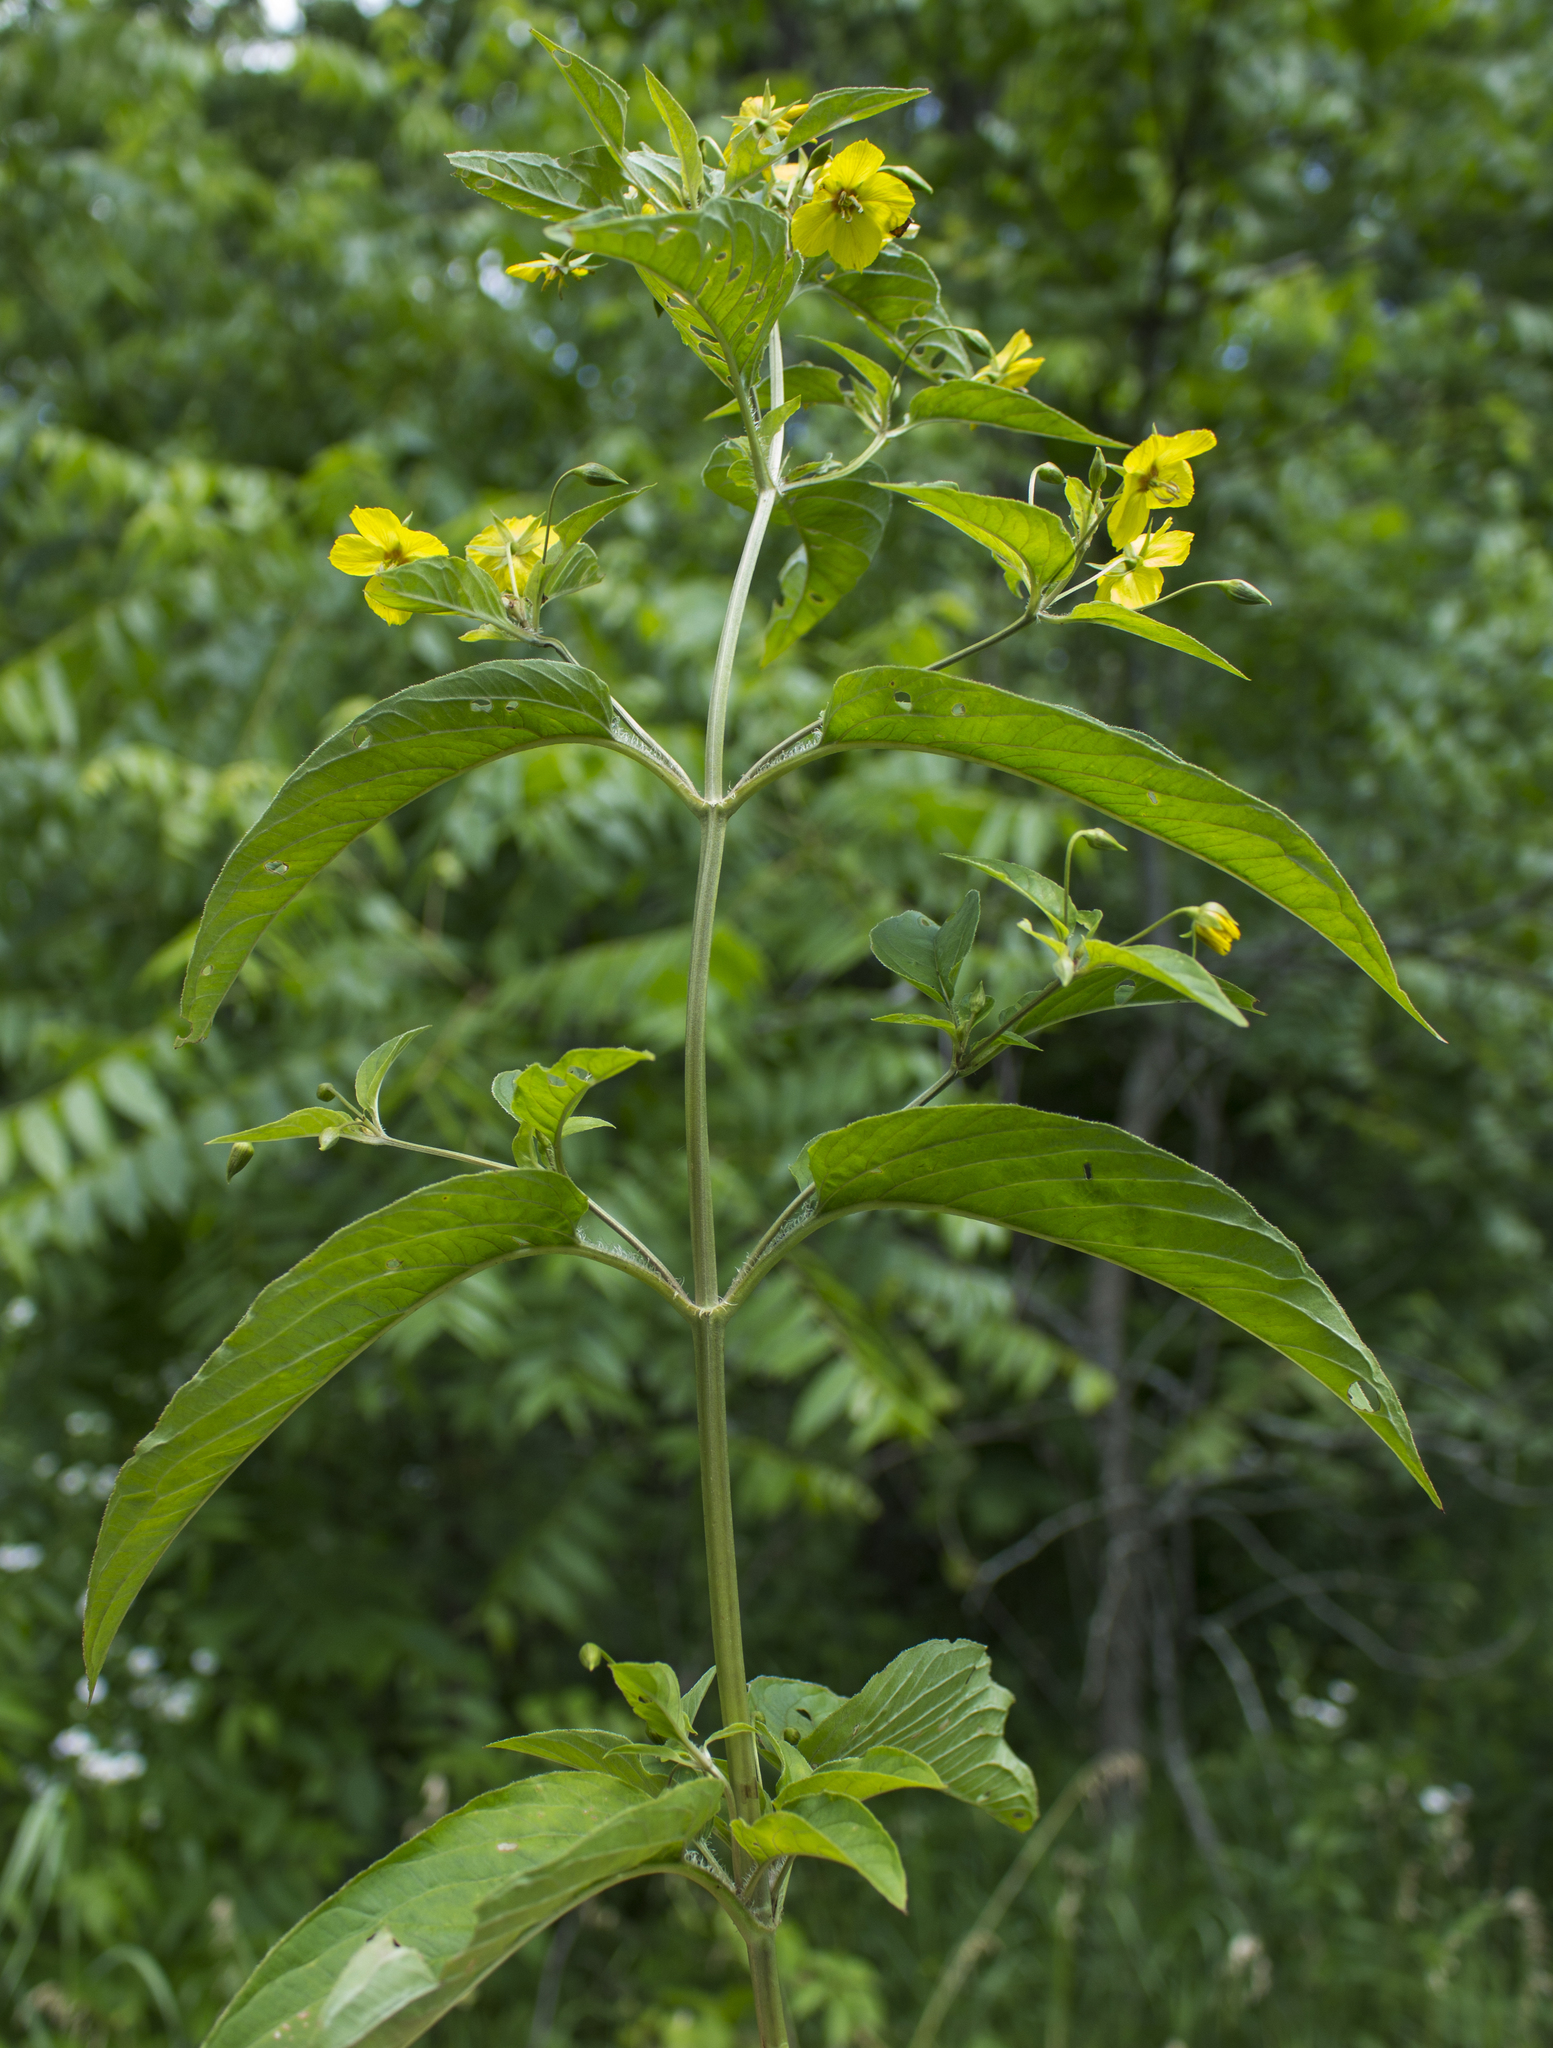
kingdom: Plantae
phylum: Tracheophyta
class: Magnoliopsida
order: Ericales
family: Primulaceae
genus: Lysimachia
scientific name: Lysimachia ciliata
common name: Fringed loosestrife
